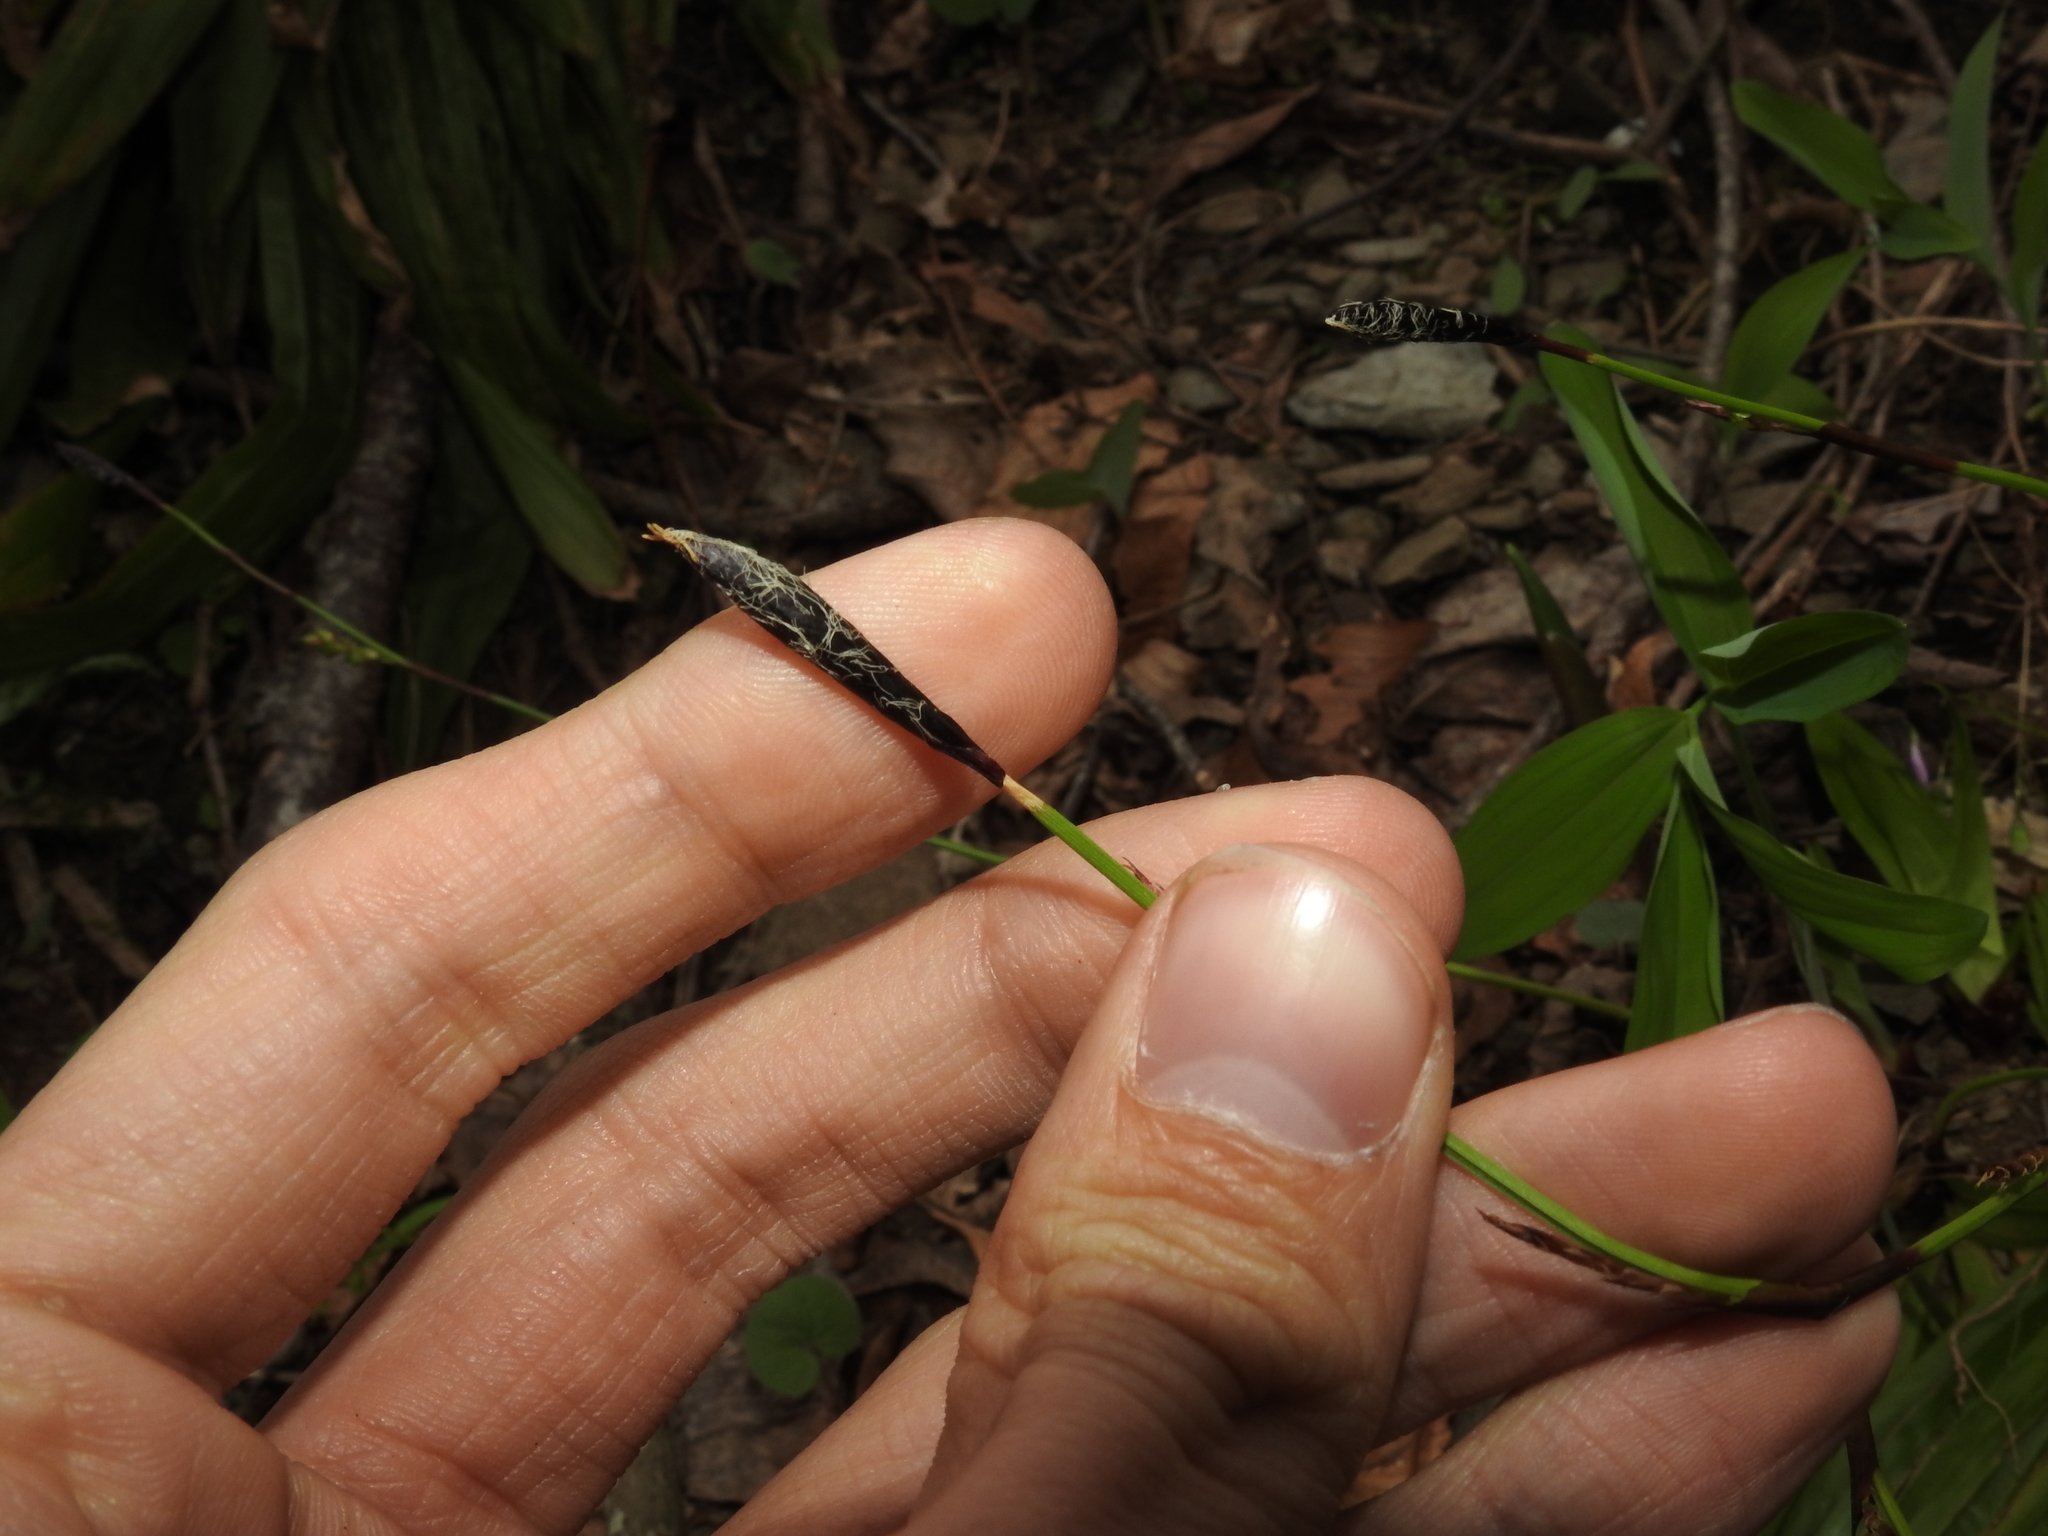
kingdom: Plantae
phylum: Tracheophyta
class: Liliopsida
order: Poales
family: Cyperaceae
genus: Carex
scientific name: Carex plantaginea
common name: Plantain-leaved sedge
